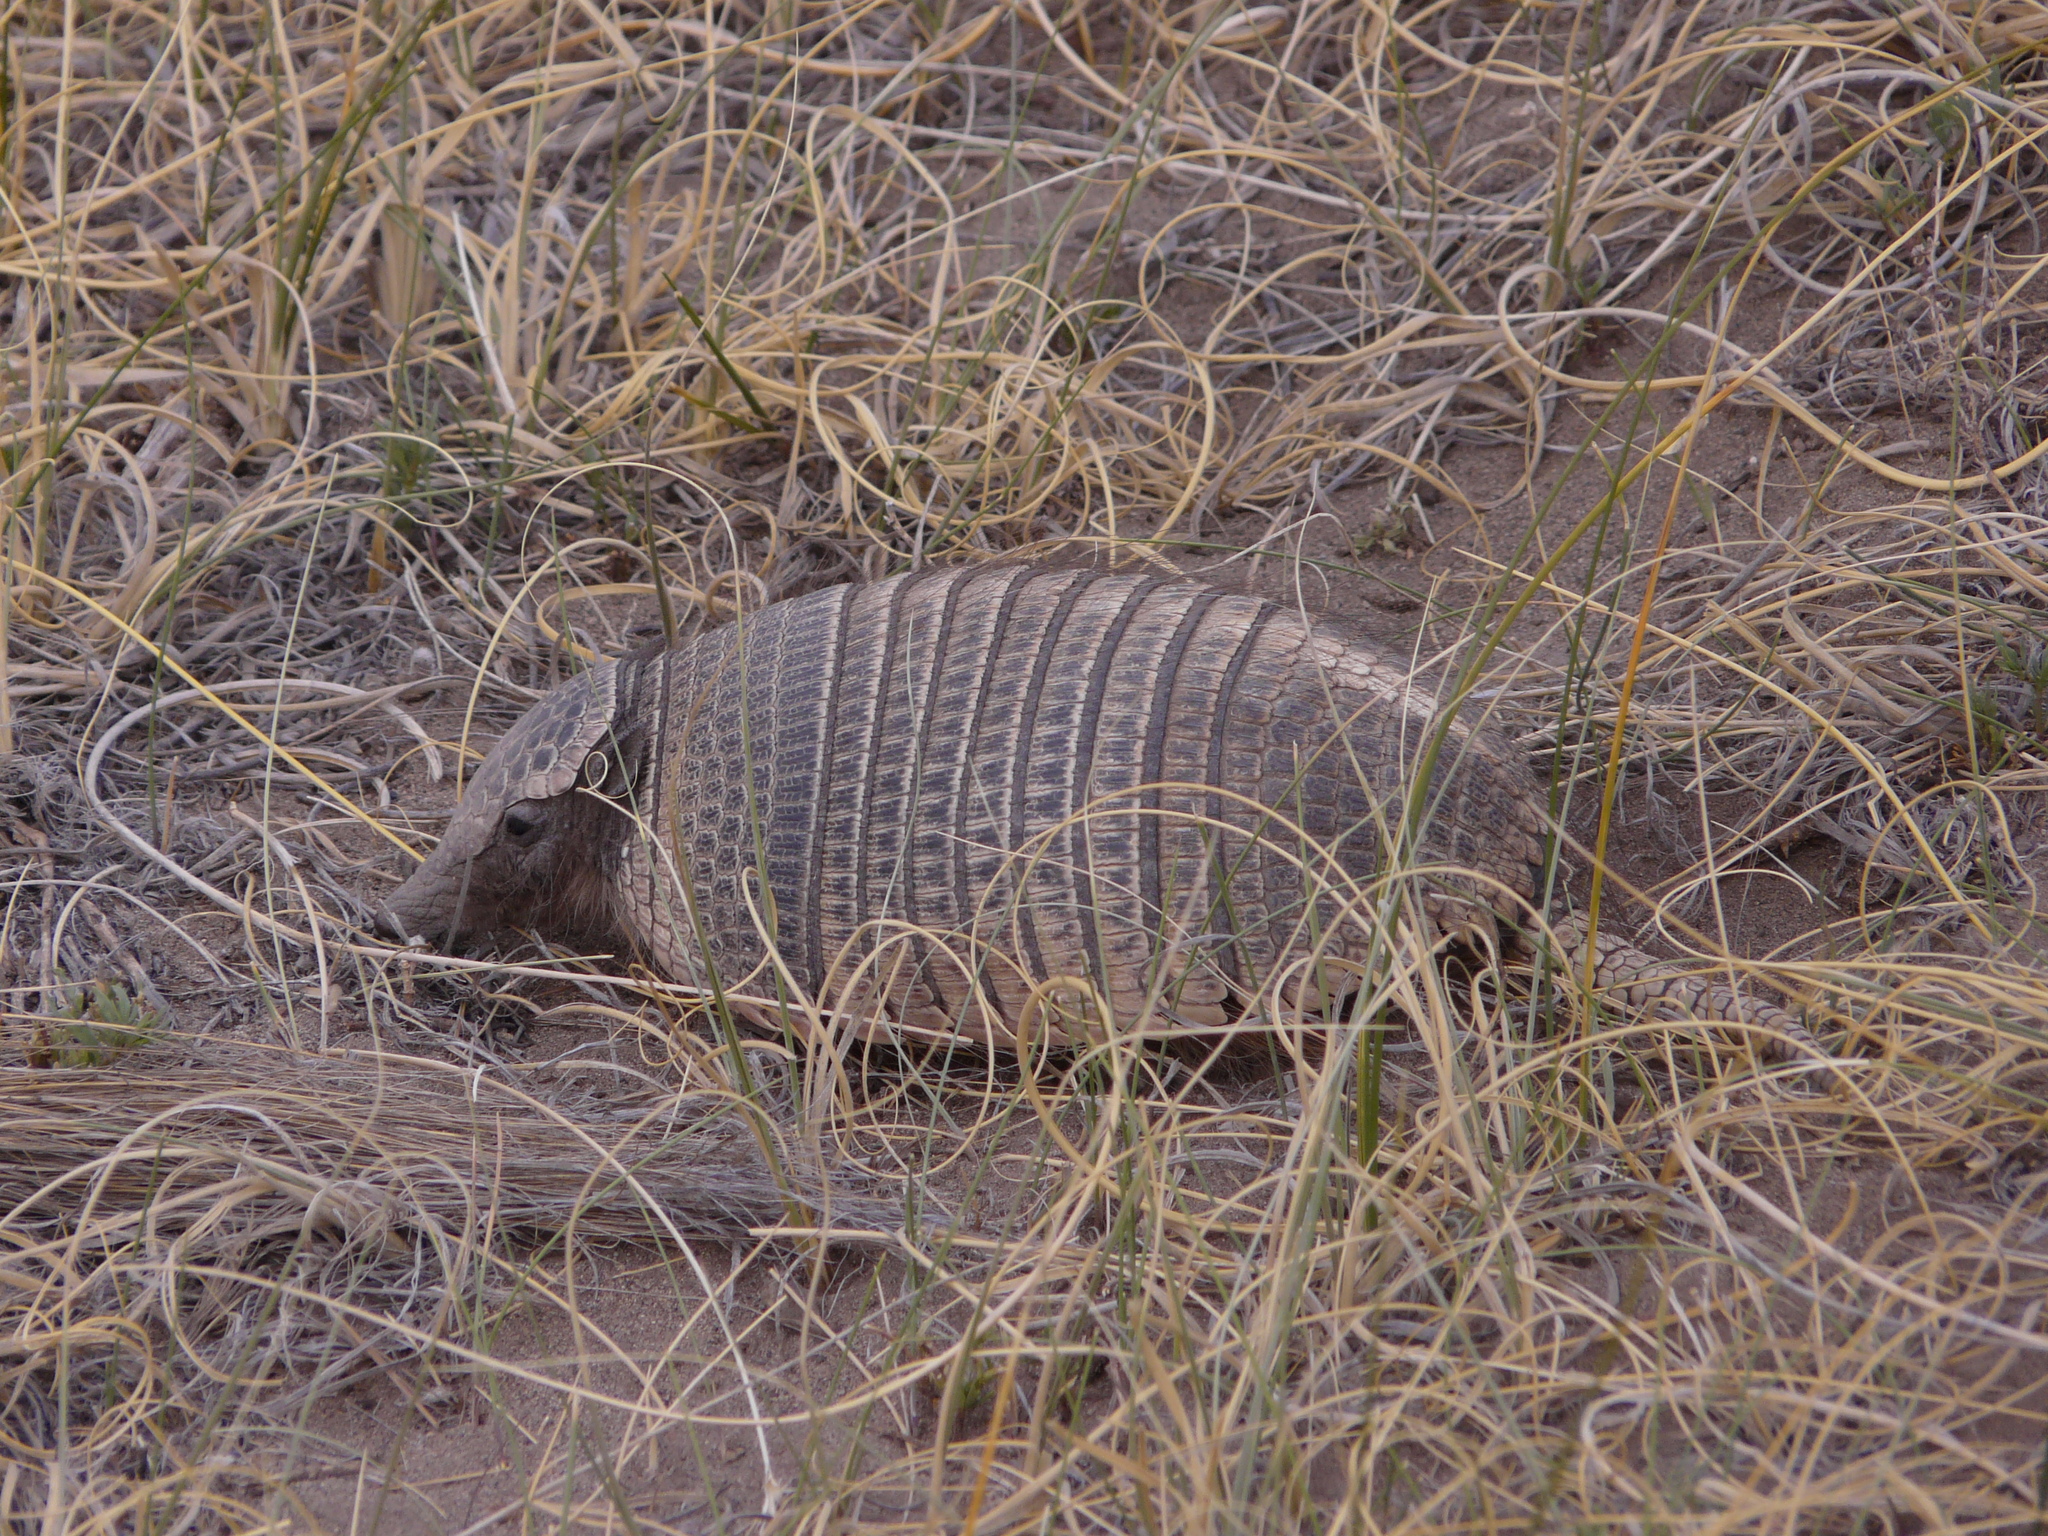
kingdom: Animalia
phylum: Chordata
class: Mammalia
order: Cingulata
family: Dasypodidae
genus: Zaedyus
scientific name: Zaedyus pichiy
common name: Pichi
